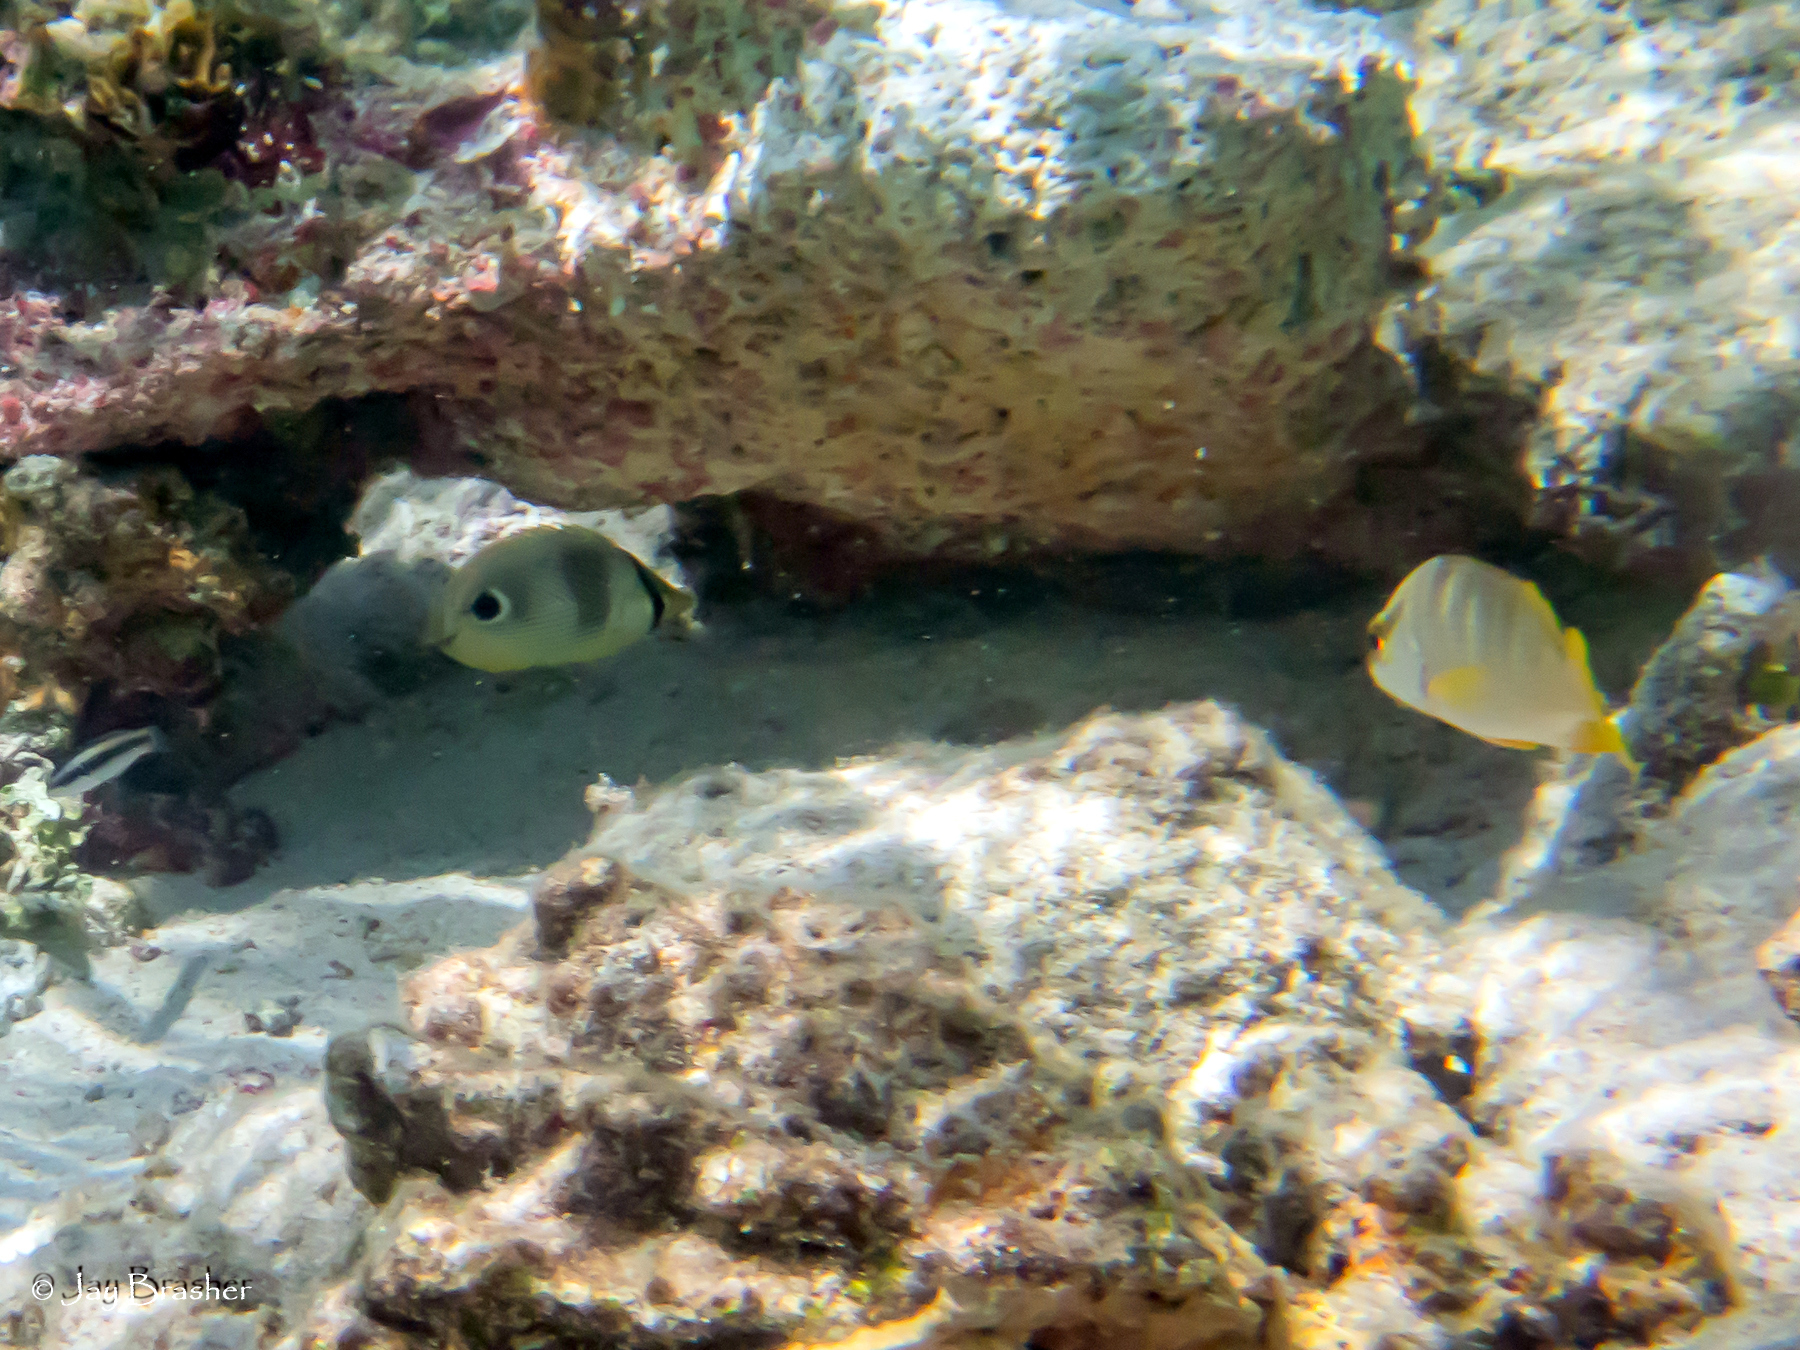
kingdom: Animalia
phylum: Chordata
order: Perciformes
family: Chaetodontidae
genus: Chaetodon
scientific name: Chaetodon capistratus
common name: Kete
